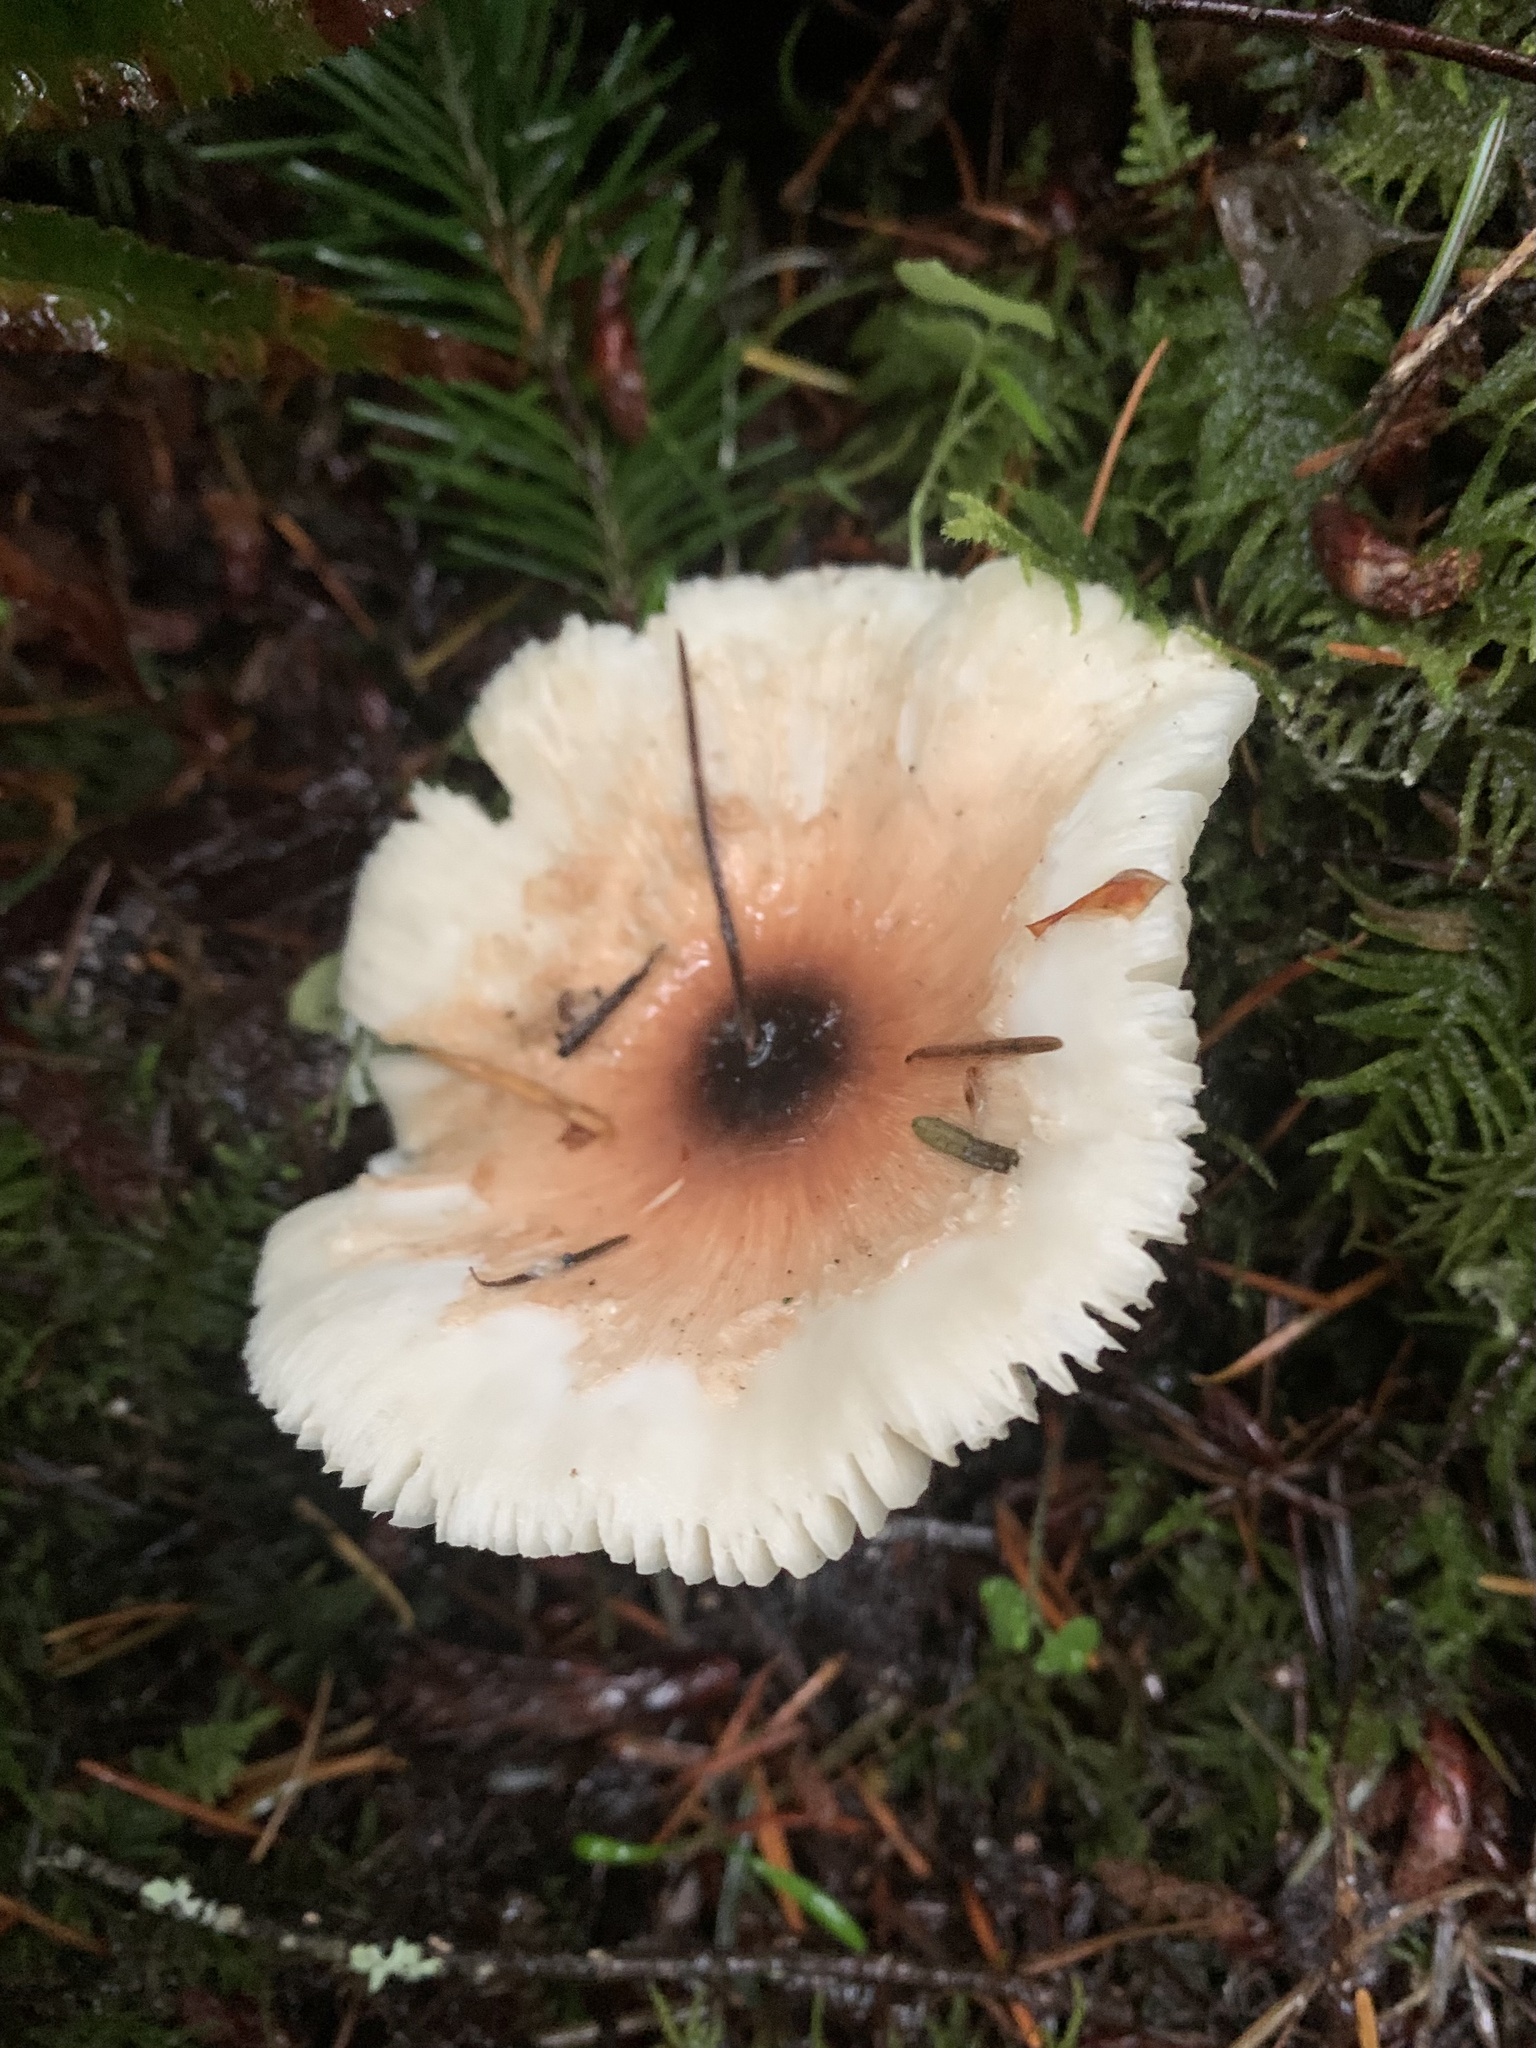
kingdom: Fungi
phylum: Basidiomycota
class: Agaricomycetes
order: Agaricales
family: Agaricaceae
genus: Lepiota
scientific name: Lepiota rubrotinctoides
